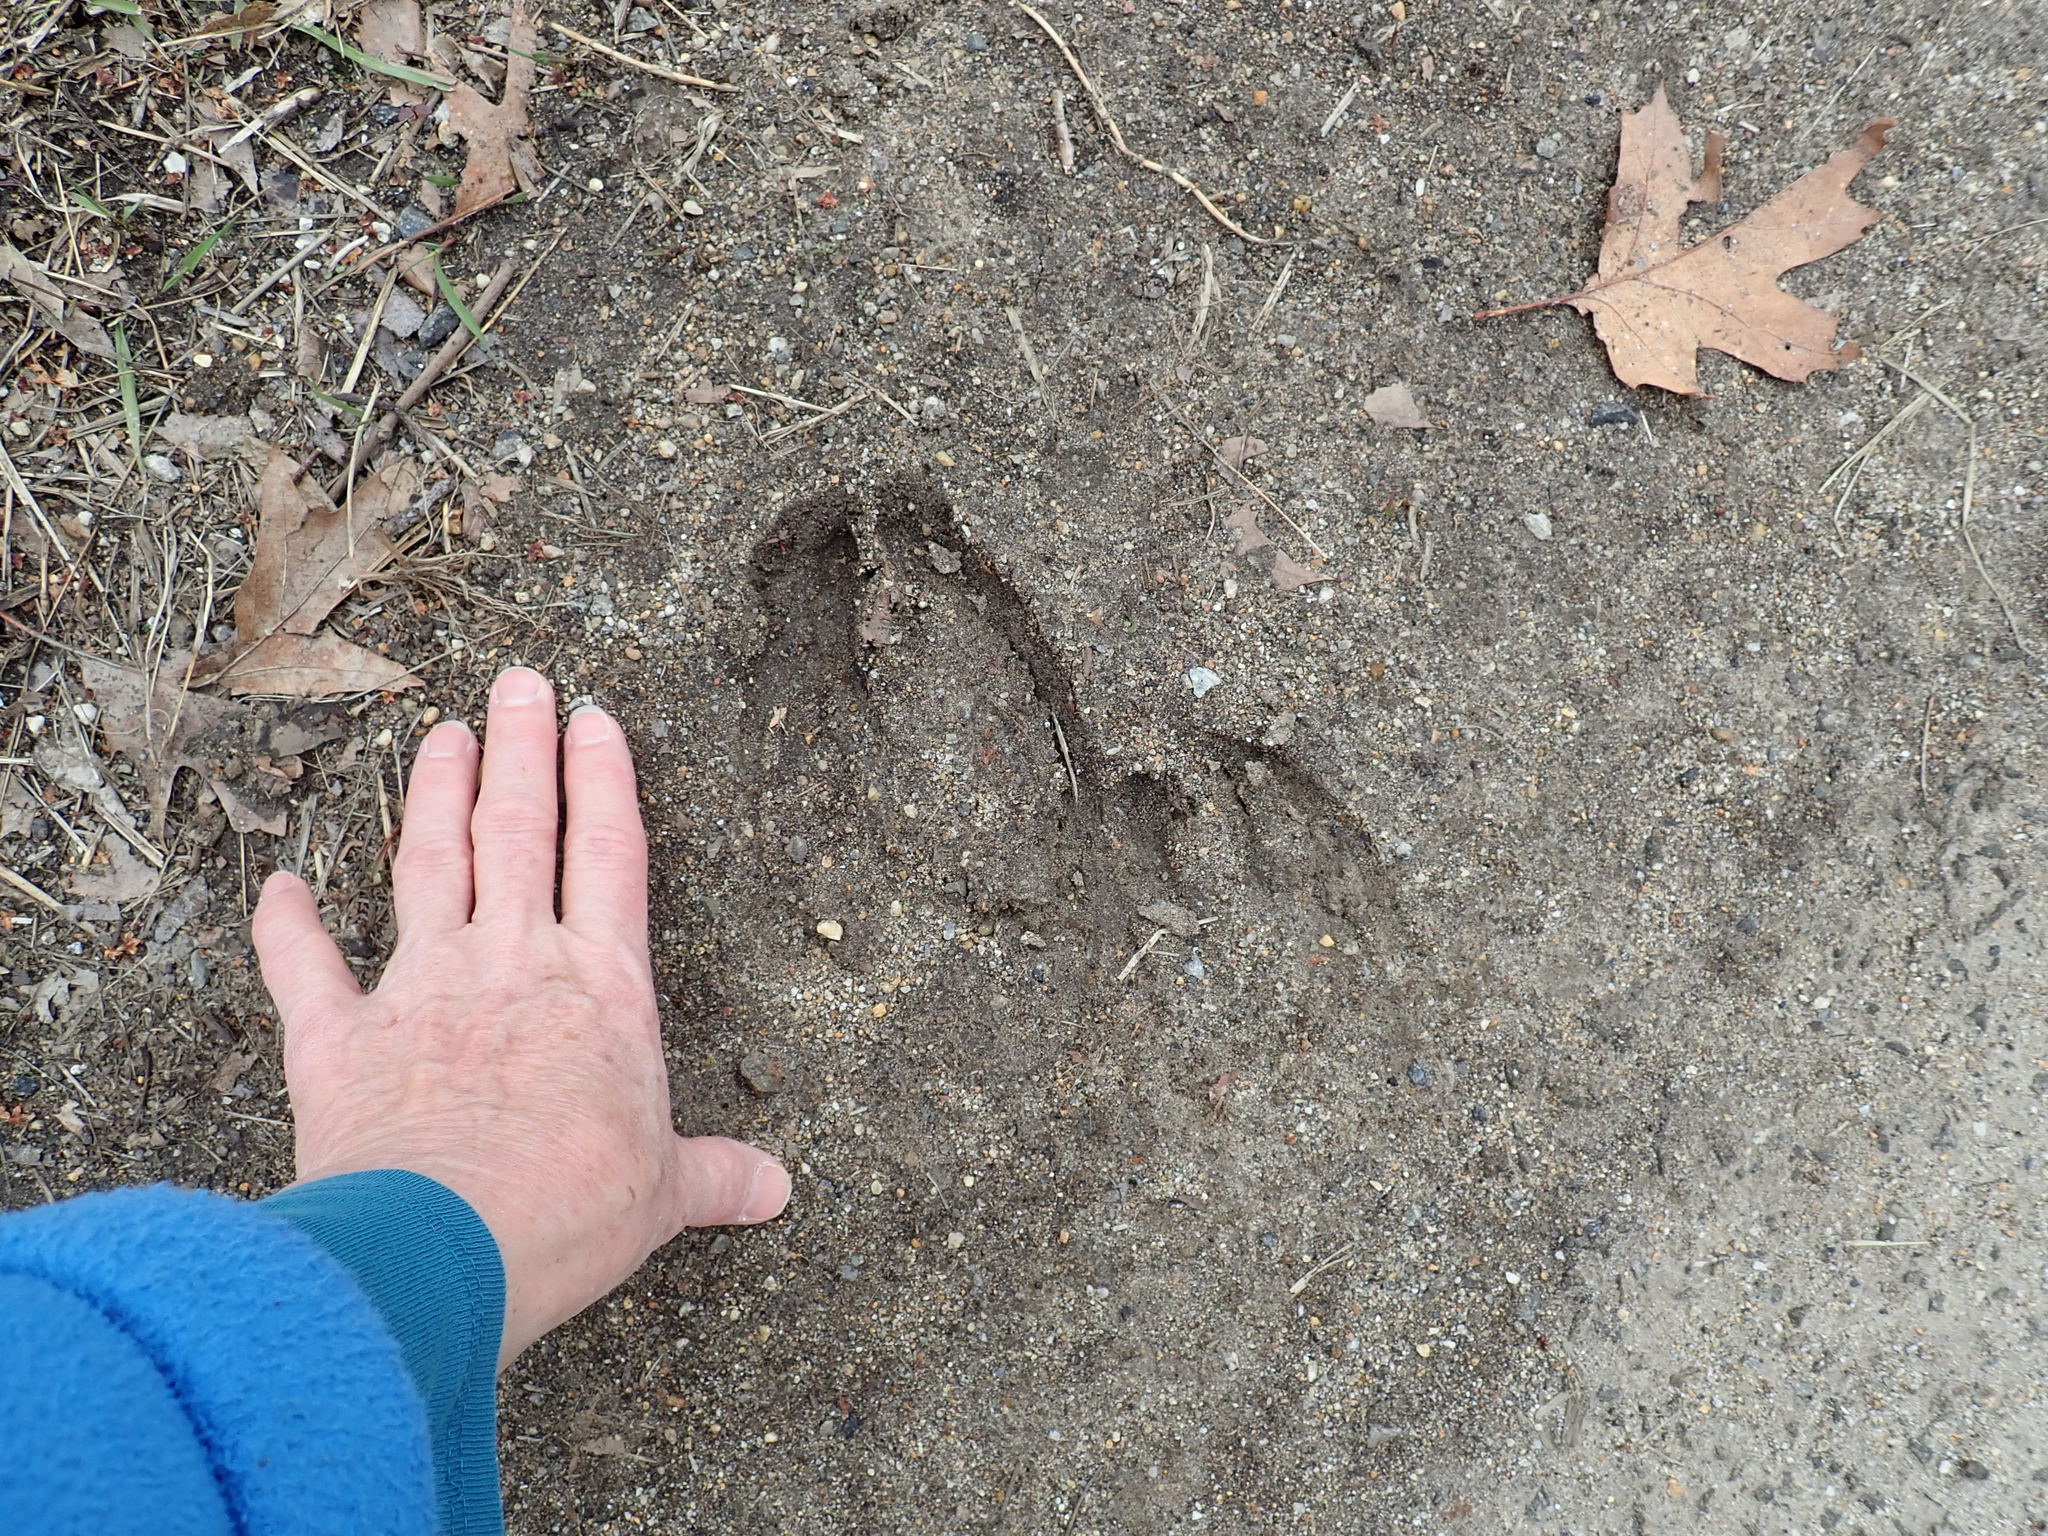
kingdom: Animalia
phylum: Chordata
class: Mammalia
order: Artiodactyla
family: Cervidae
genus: Alces
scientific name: Alces alces
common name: Moose
